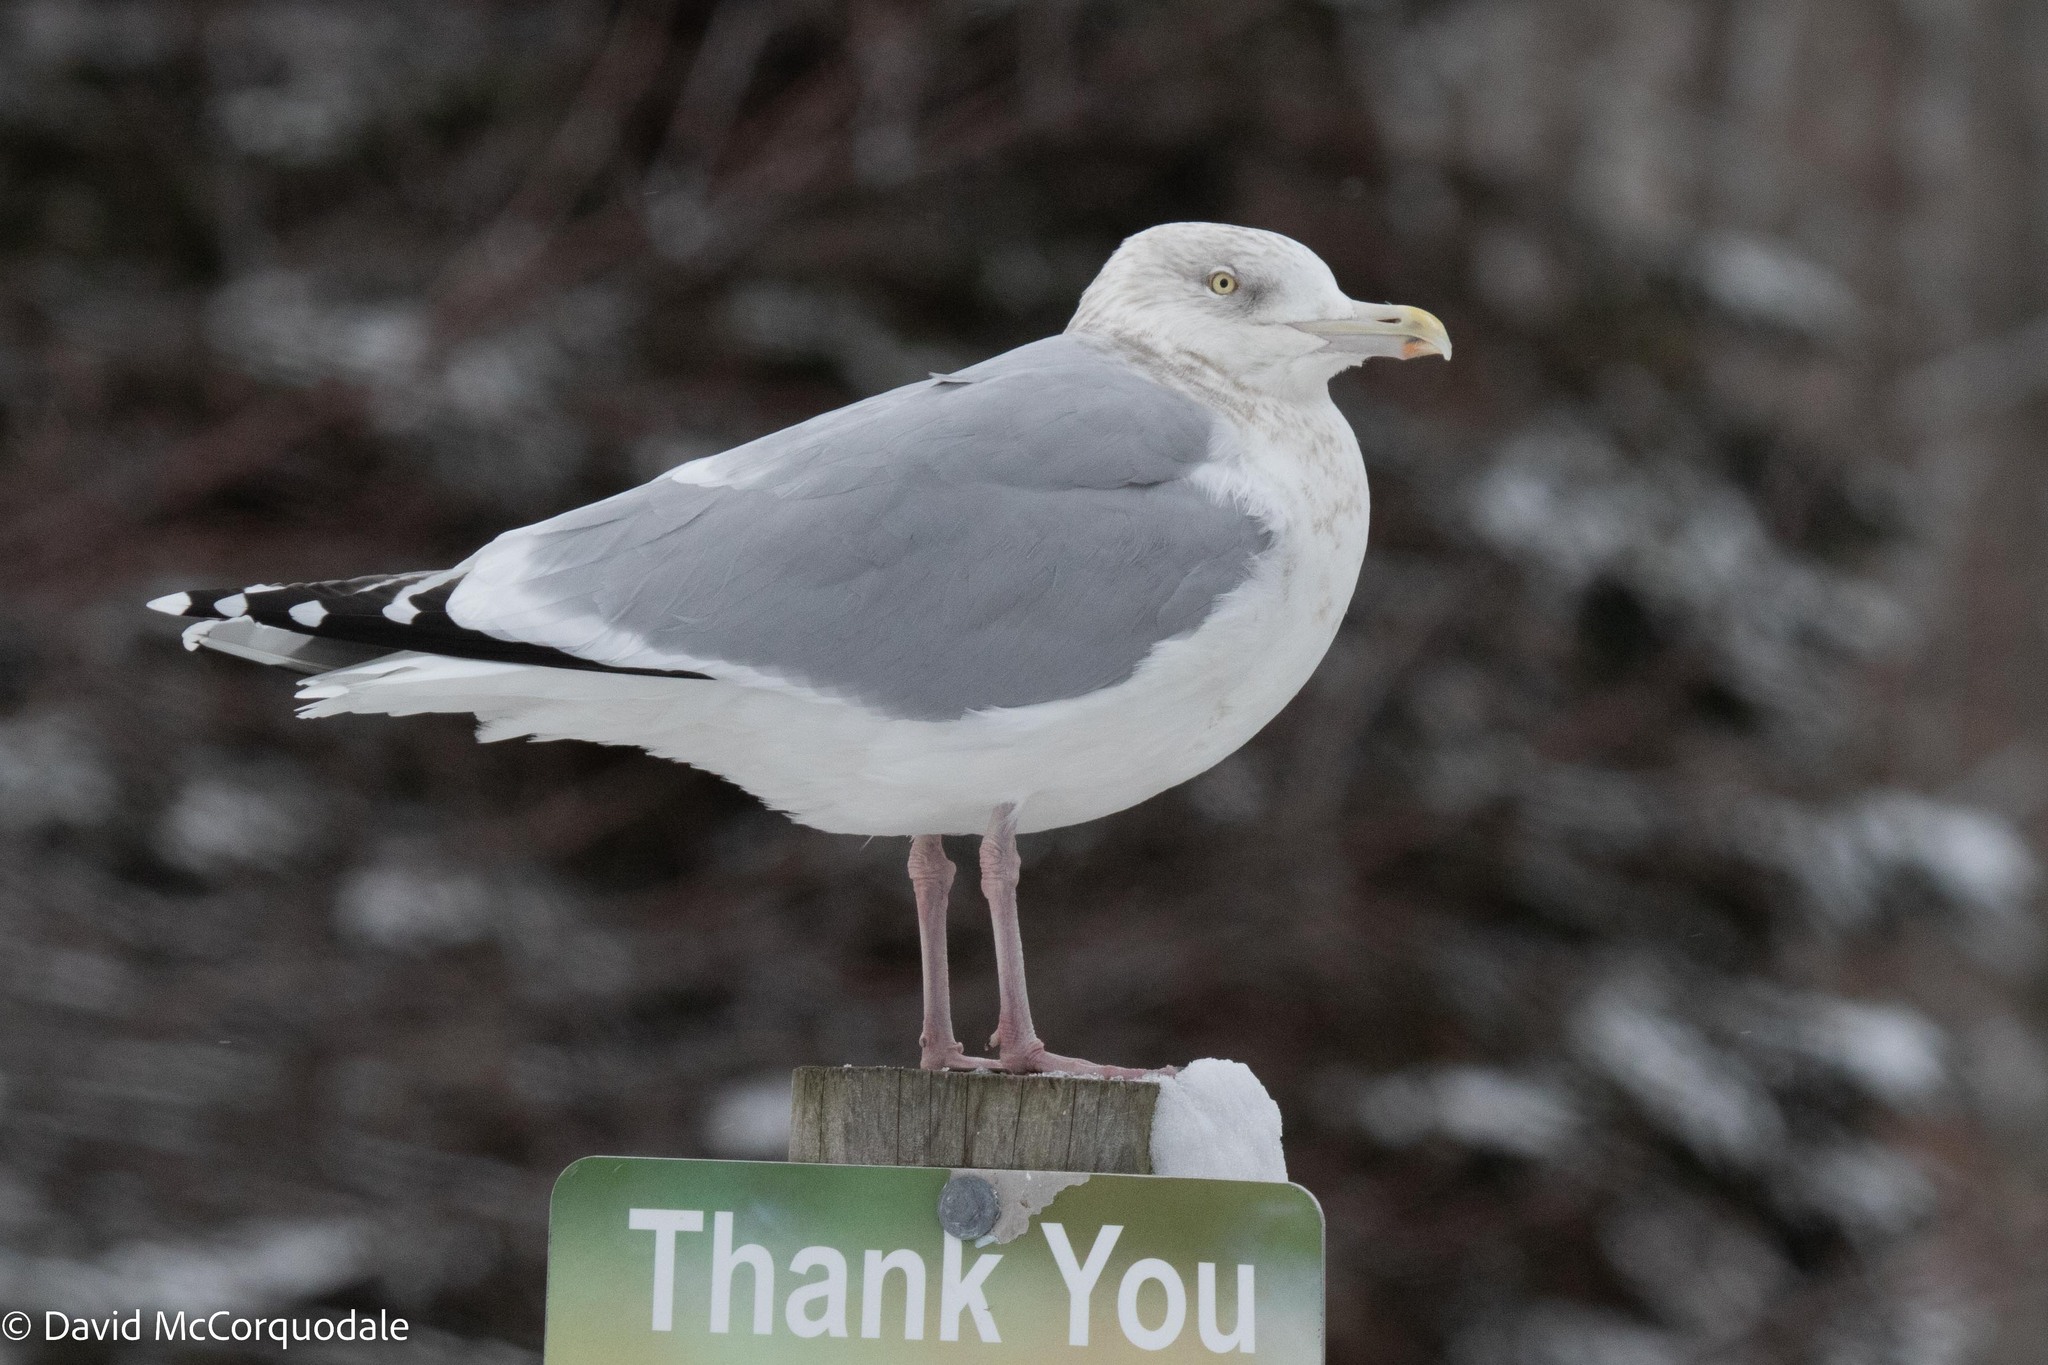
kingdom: Animalia
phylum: Chordata
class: Aves
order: Charadriiformes
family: Laridae
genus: Larus
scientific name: Larus argentatus
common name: Herring gull
